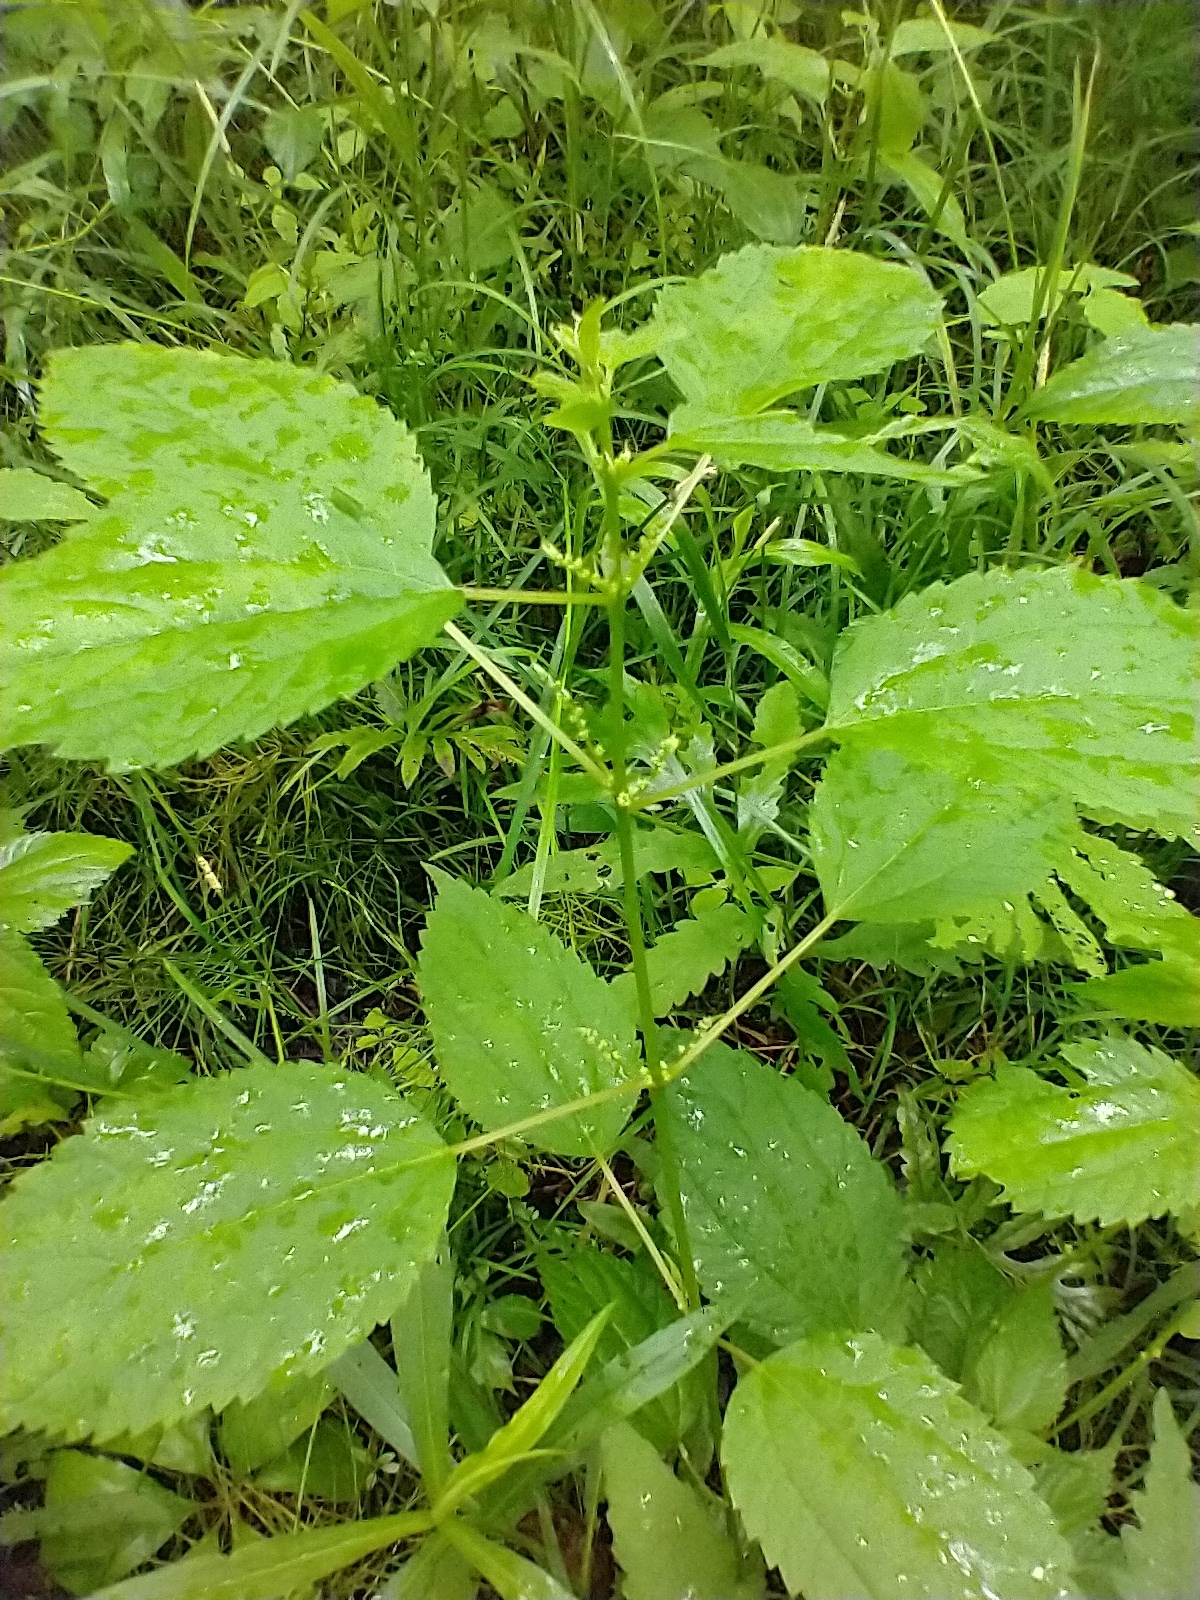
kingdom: Plantae
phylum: Tracheophyta
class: Magnoliopsida
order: Rosales
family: Urticaceae
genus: Boehmeria
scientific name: Boehmeria cylindrica
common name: Bog-hemp
